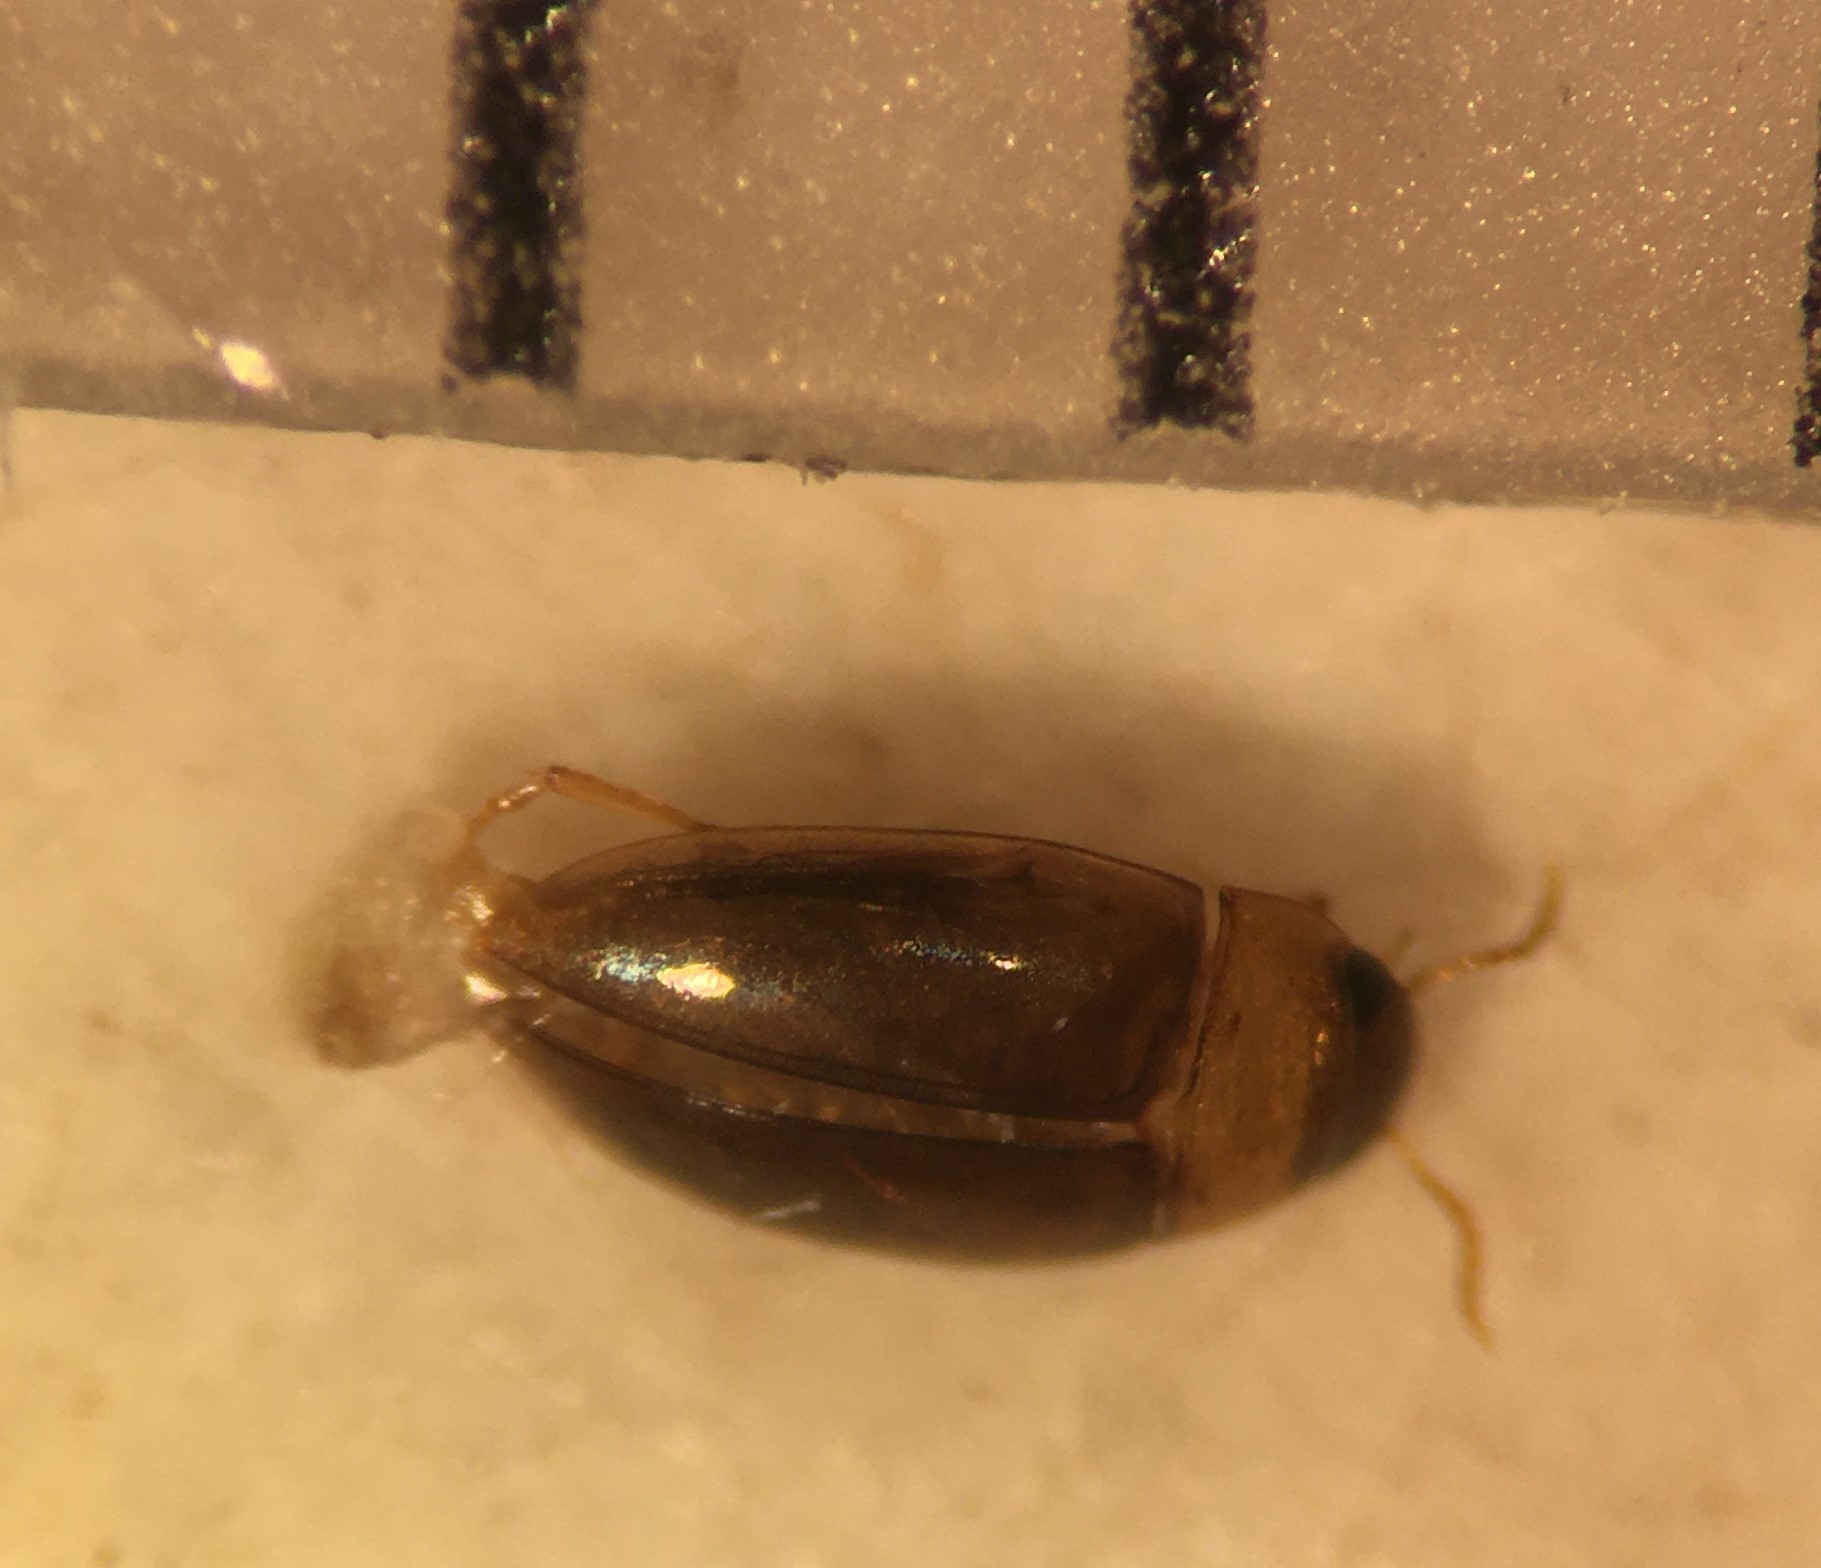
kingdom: Animalia
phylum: Arthropoda
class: Insecta
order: Coleoptera
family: Noteridae
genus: Notomicrus
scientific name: Notomicrus sharpi
